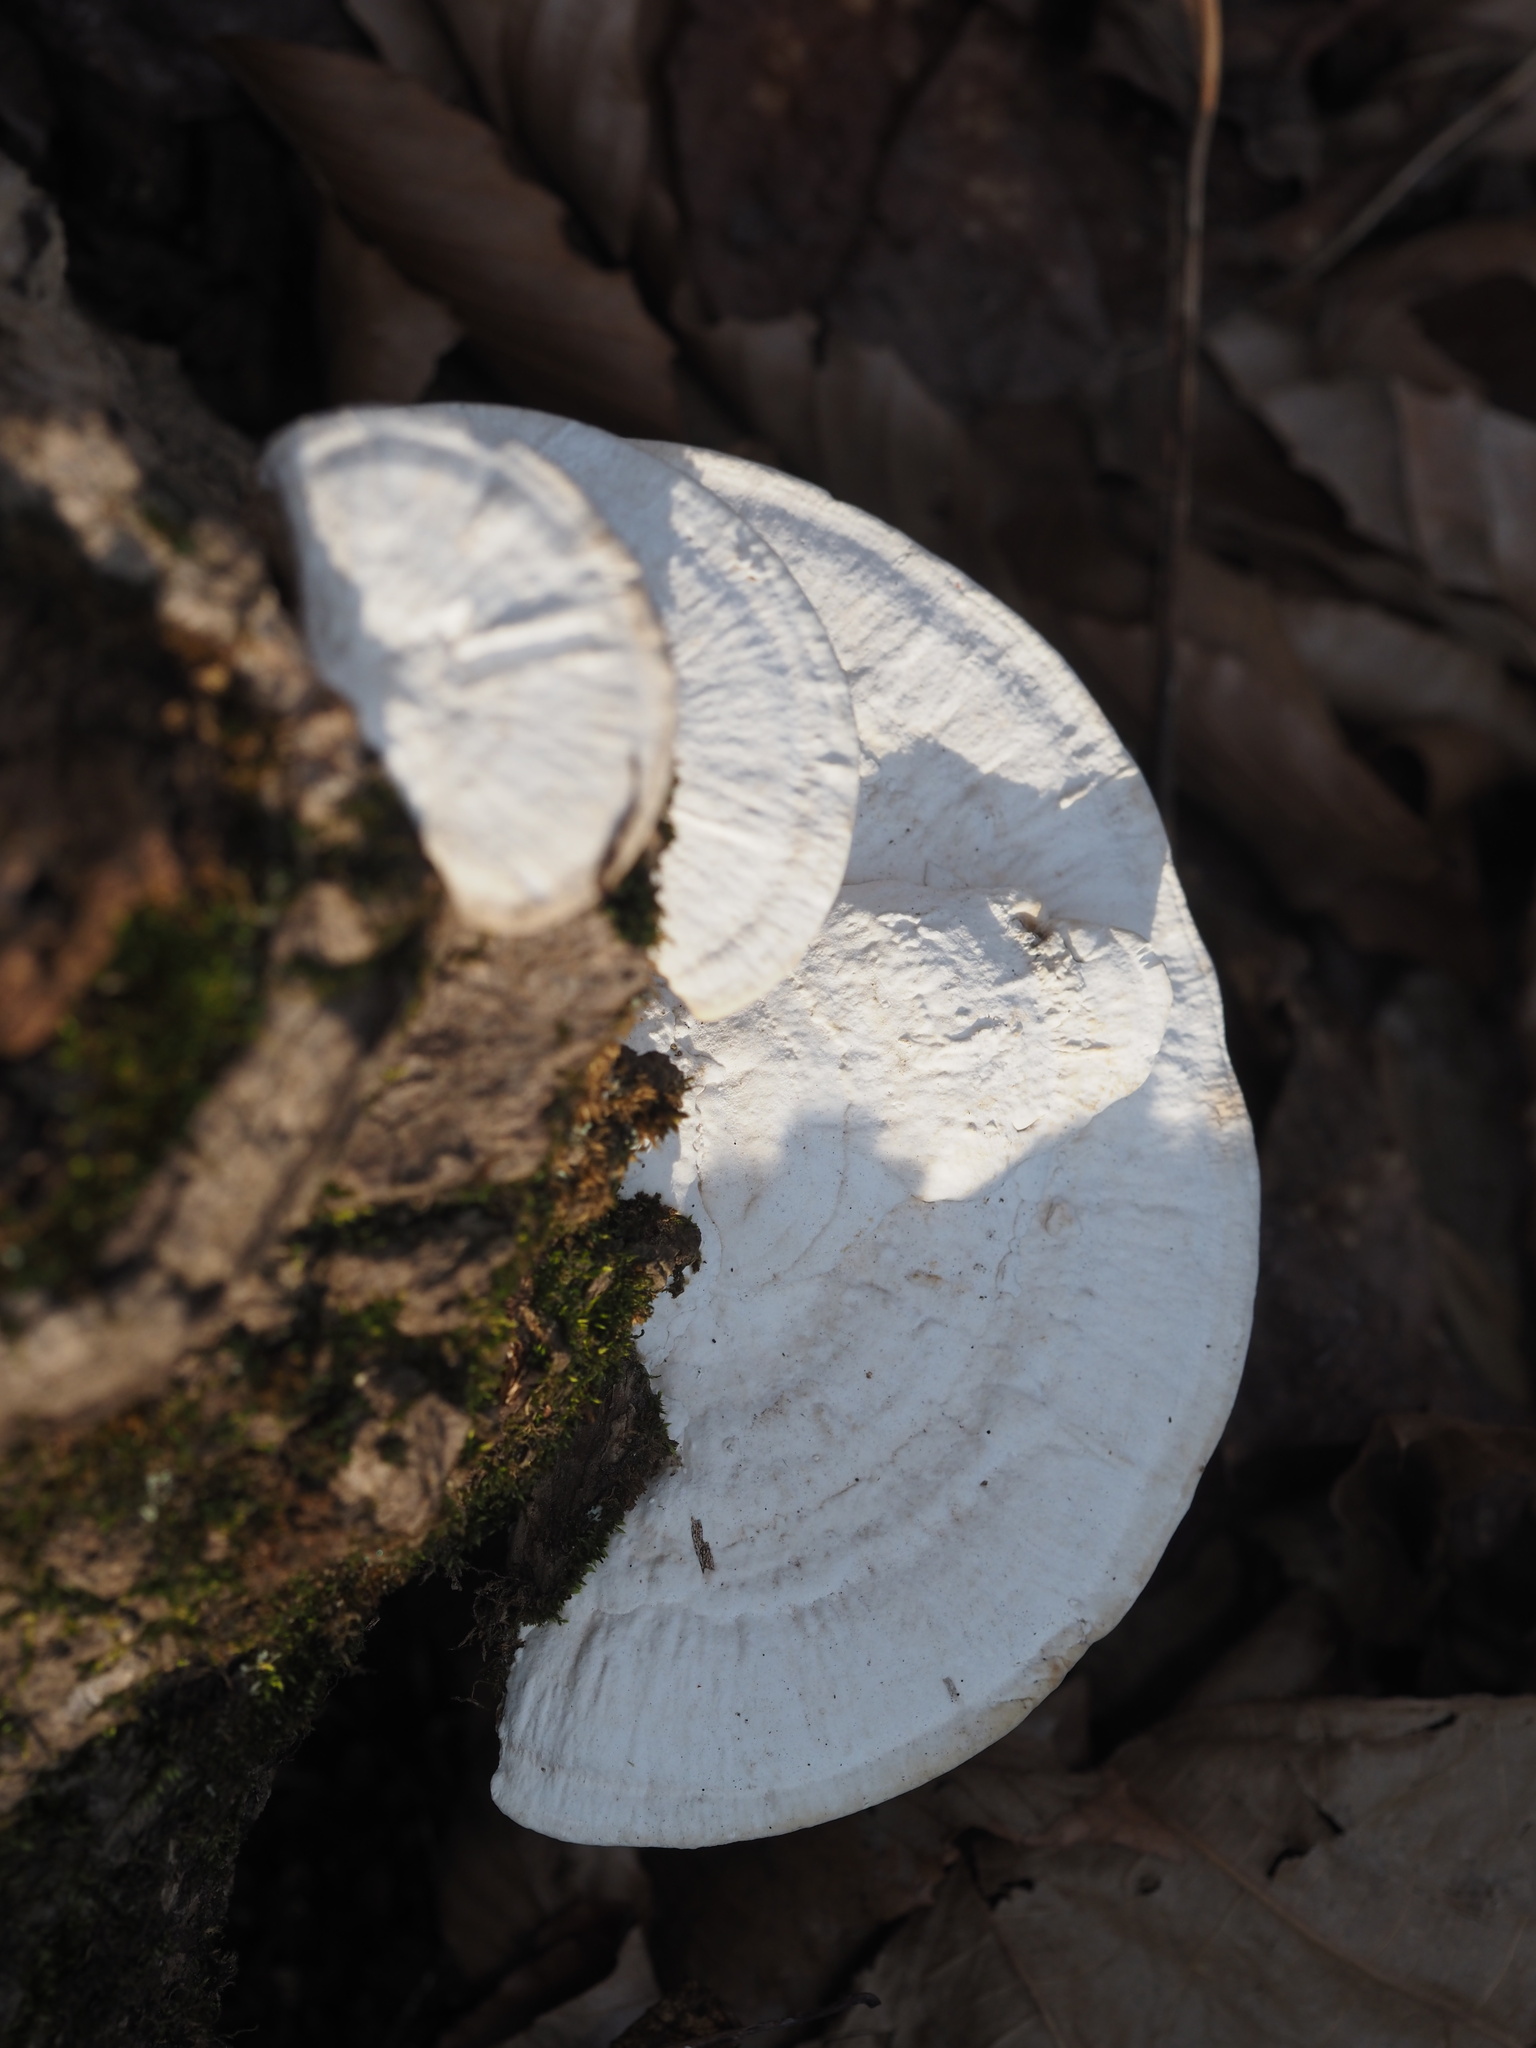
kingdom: Fungi
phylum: Basidiomycota
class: Agaricomycetes
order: Polyporales
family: Polyporaceae
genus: Trametes
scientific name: Trametes lactinea
